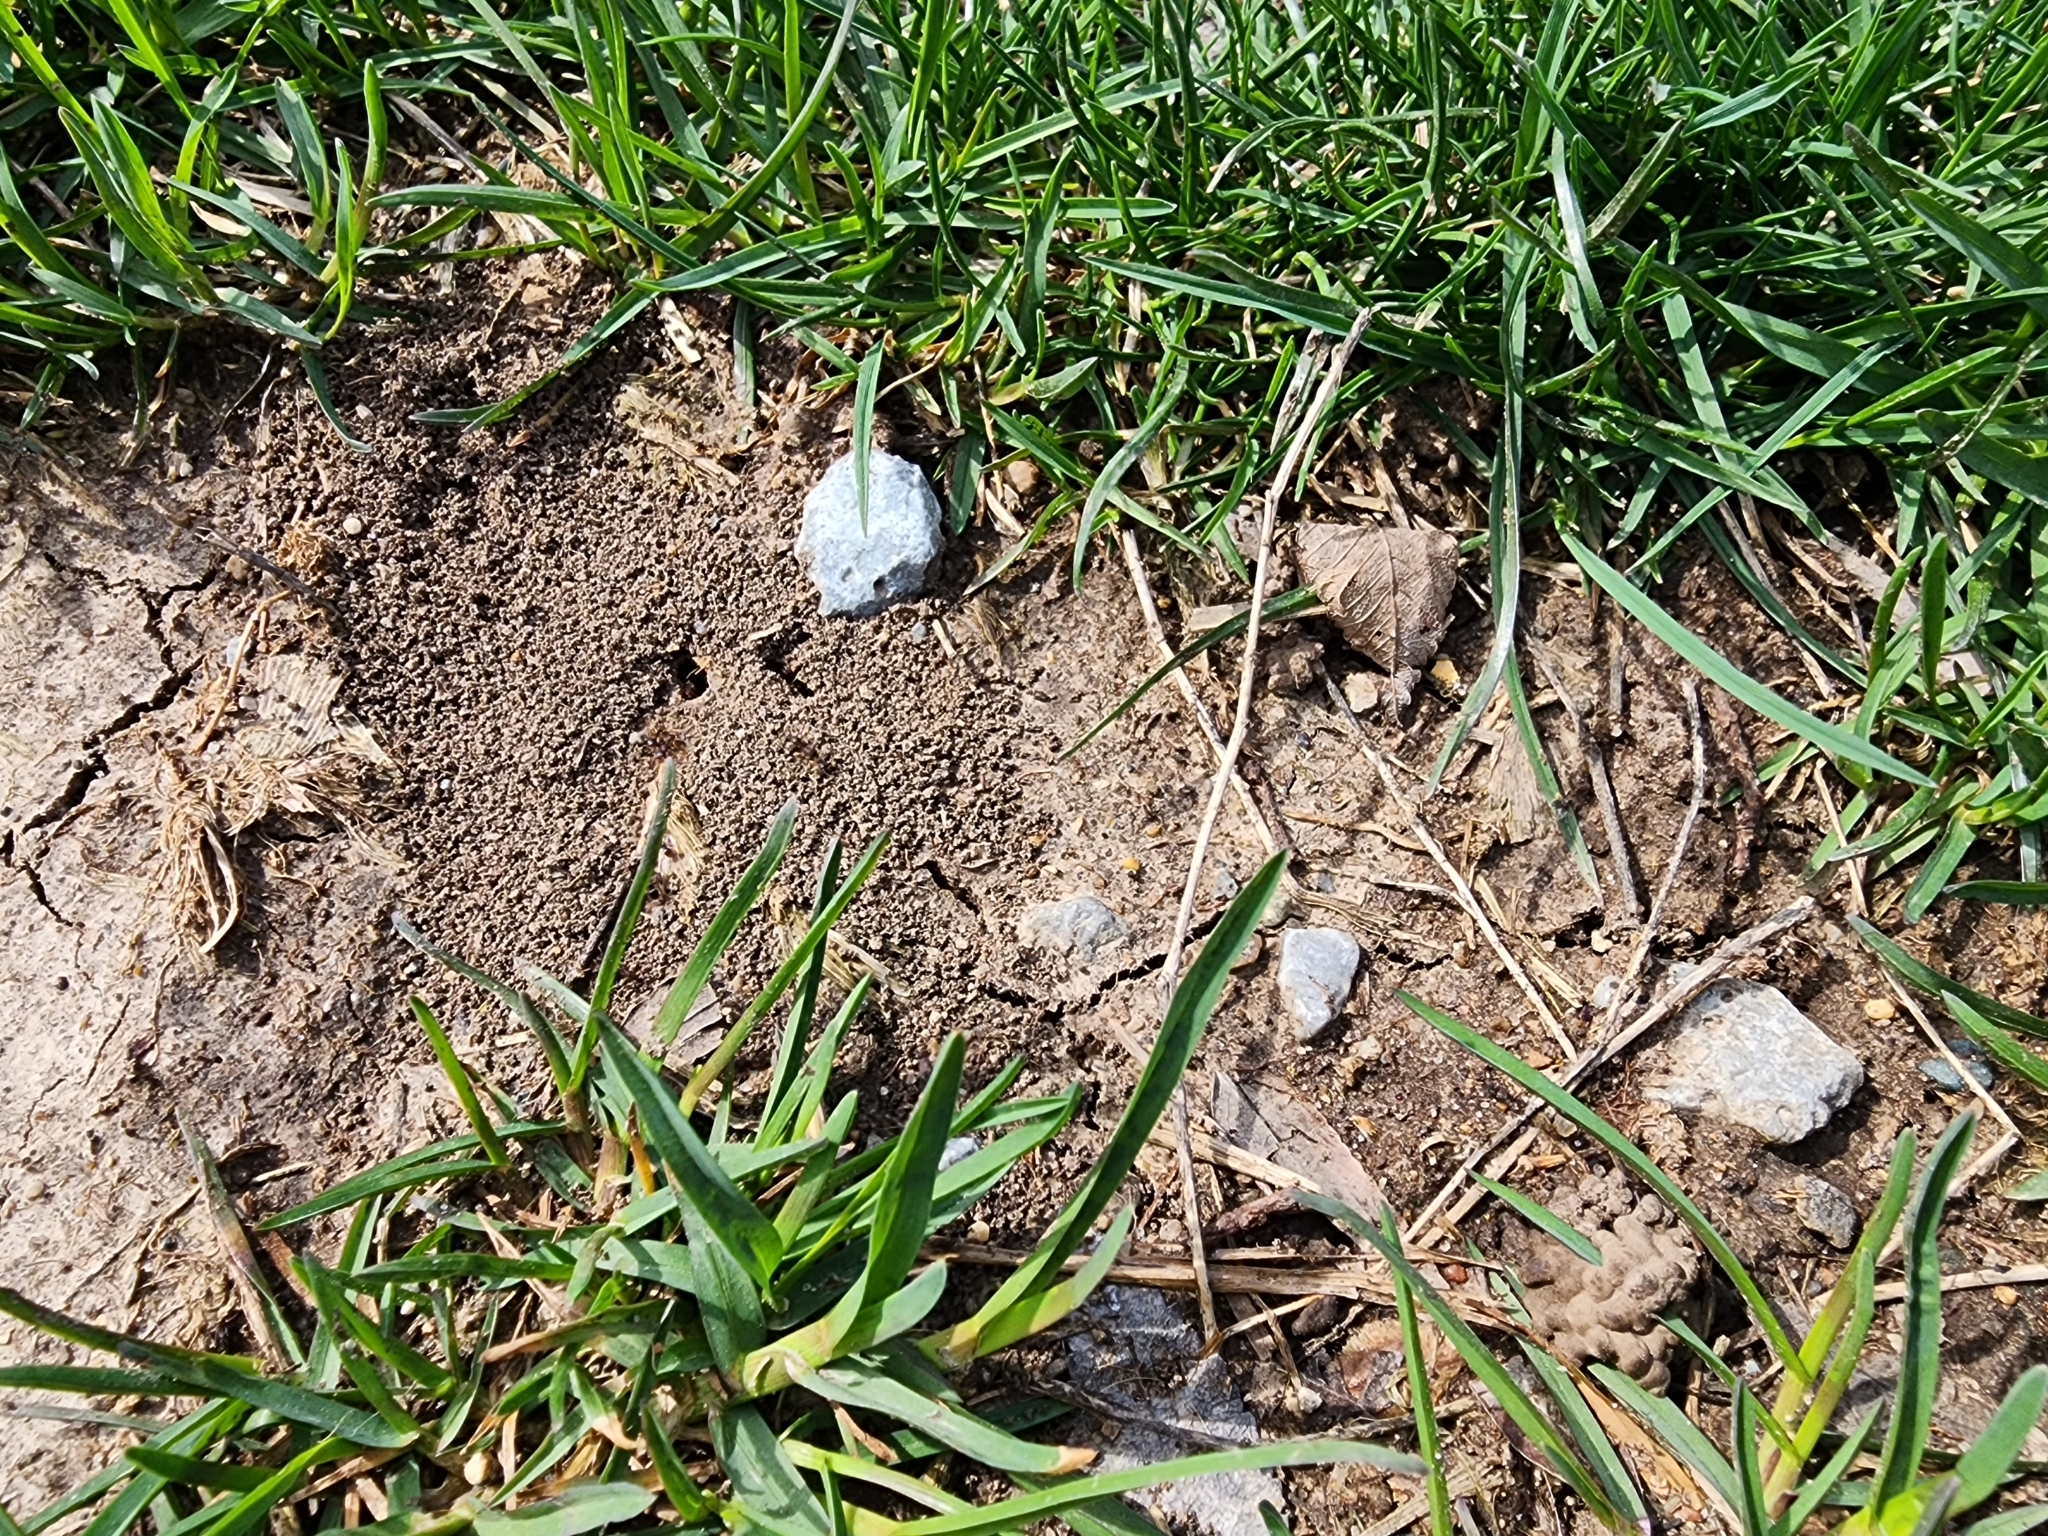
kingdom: Animalia
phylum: Arthropoda
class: Insecta
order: Hymenoptera
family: Formicidae
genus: Tetramorium
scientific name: Tetramorium immigrans
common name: Pavement ant
